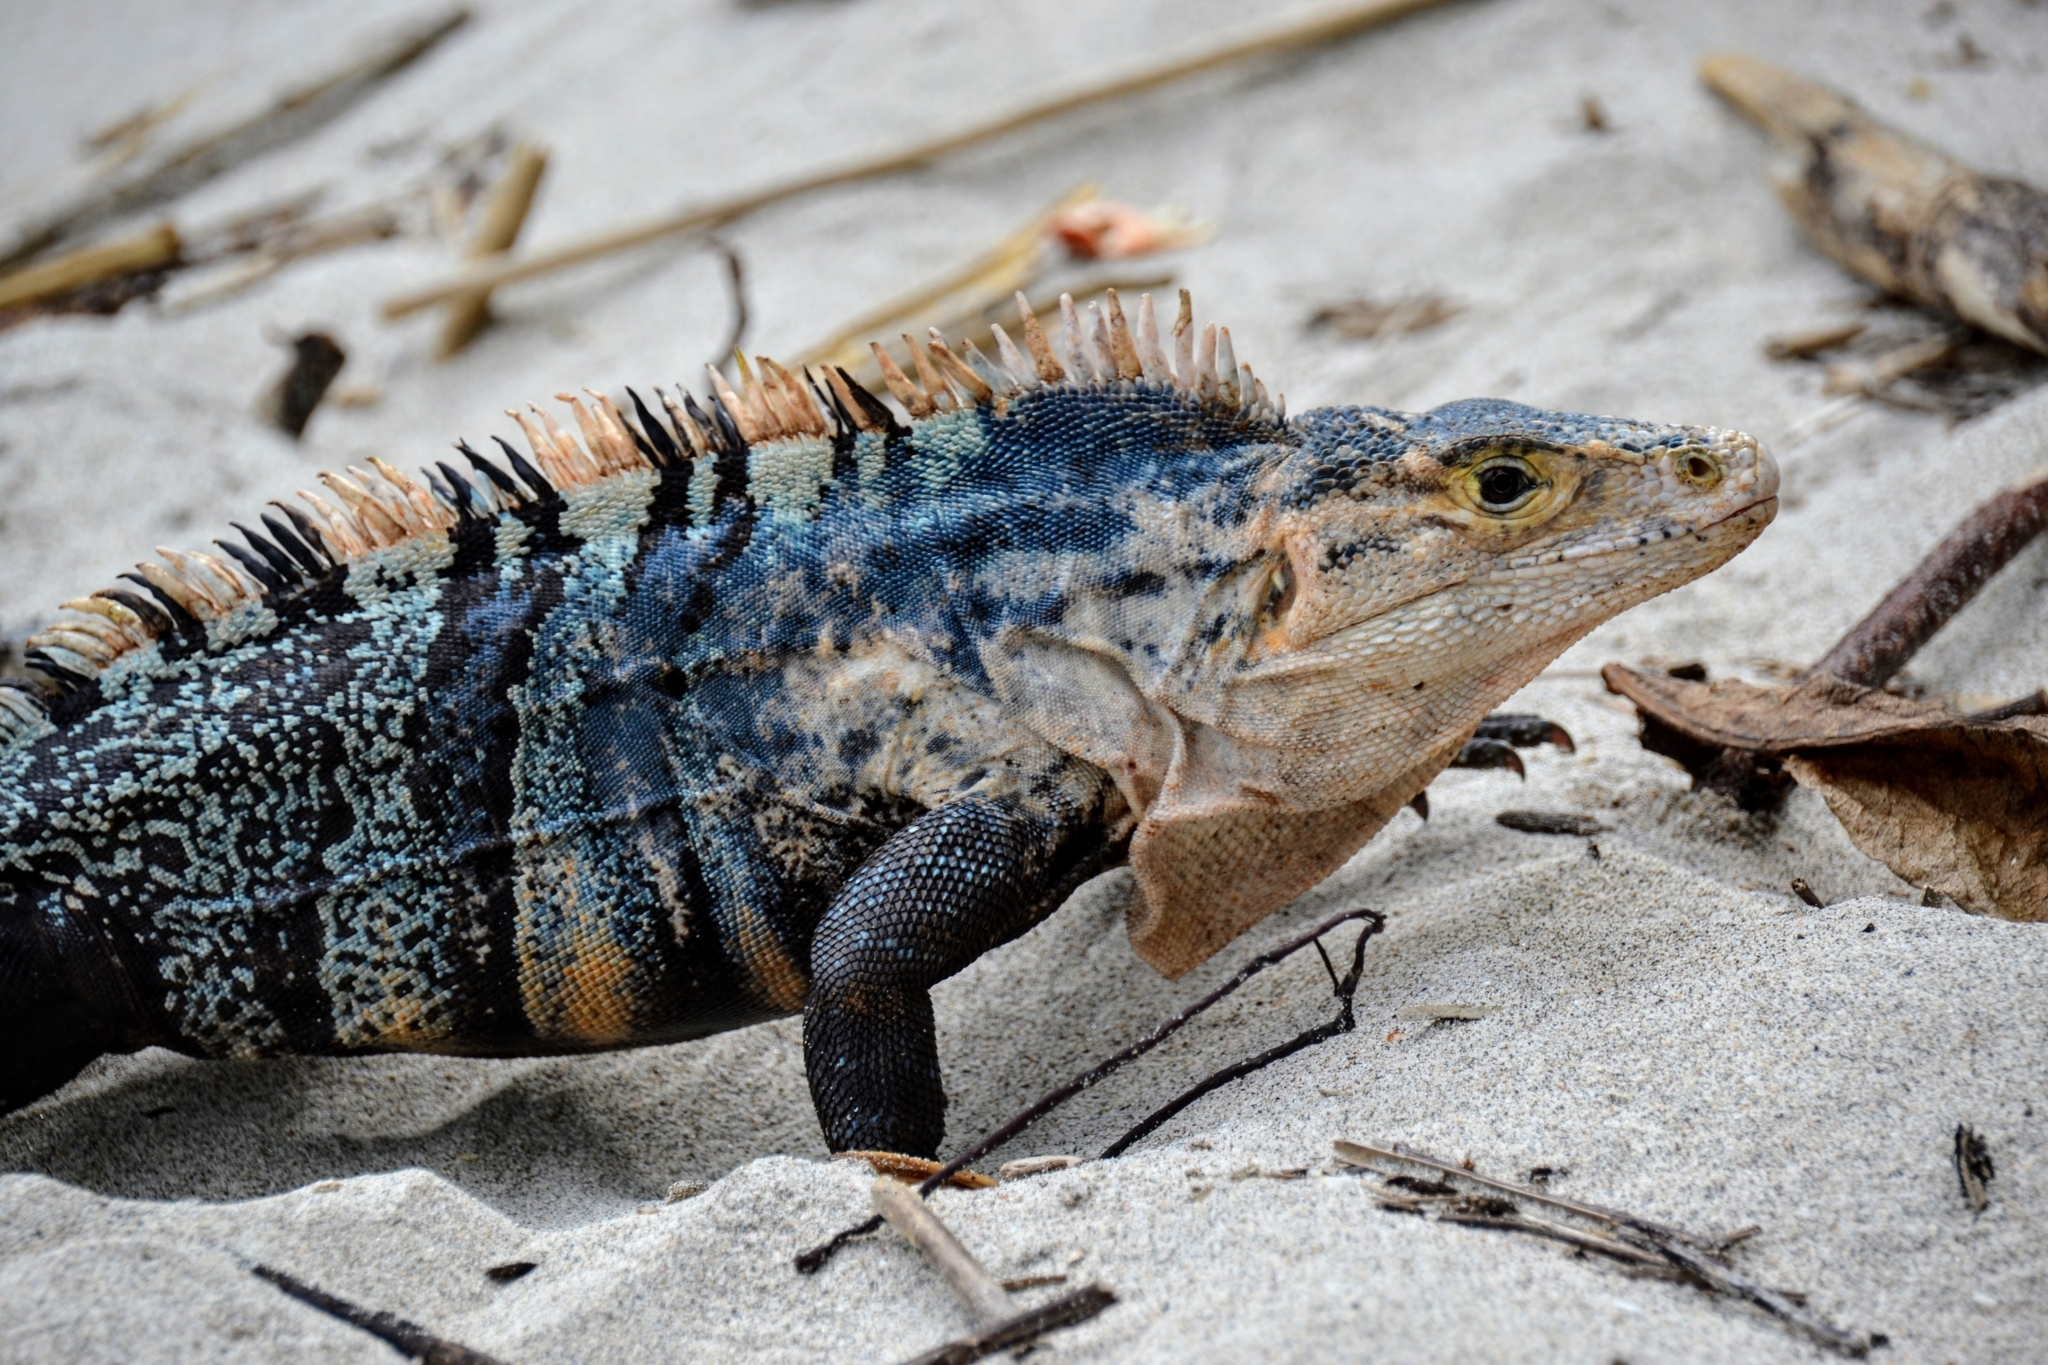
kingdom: Animalia
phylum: Chordata
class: Squamata
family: Iguanidae
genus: Ctenosaura
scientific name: Ctenosaura similis
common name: Black spiny-tailed iguana
